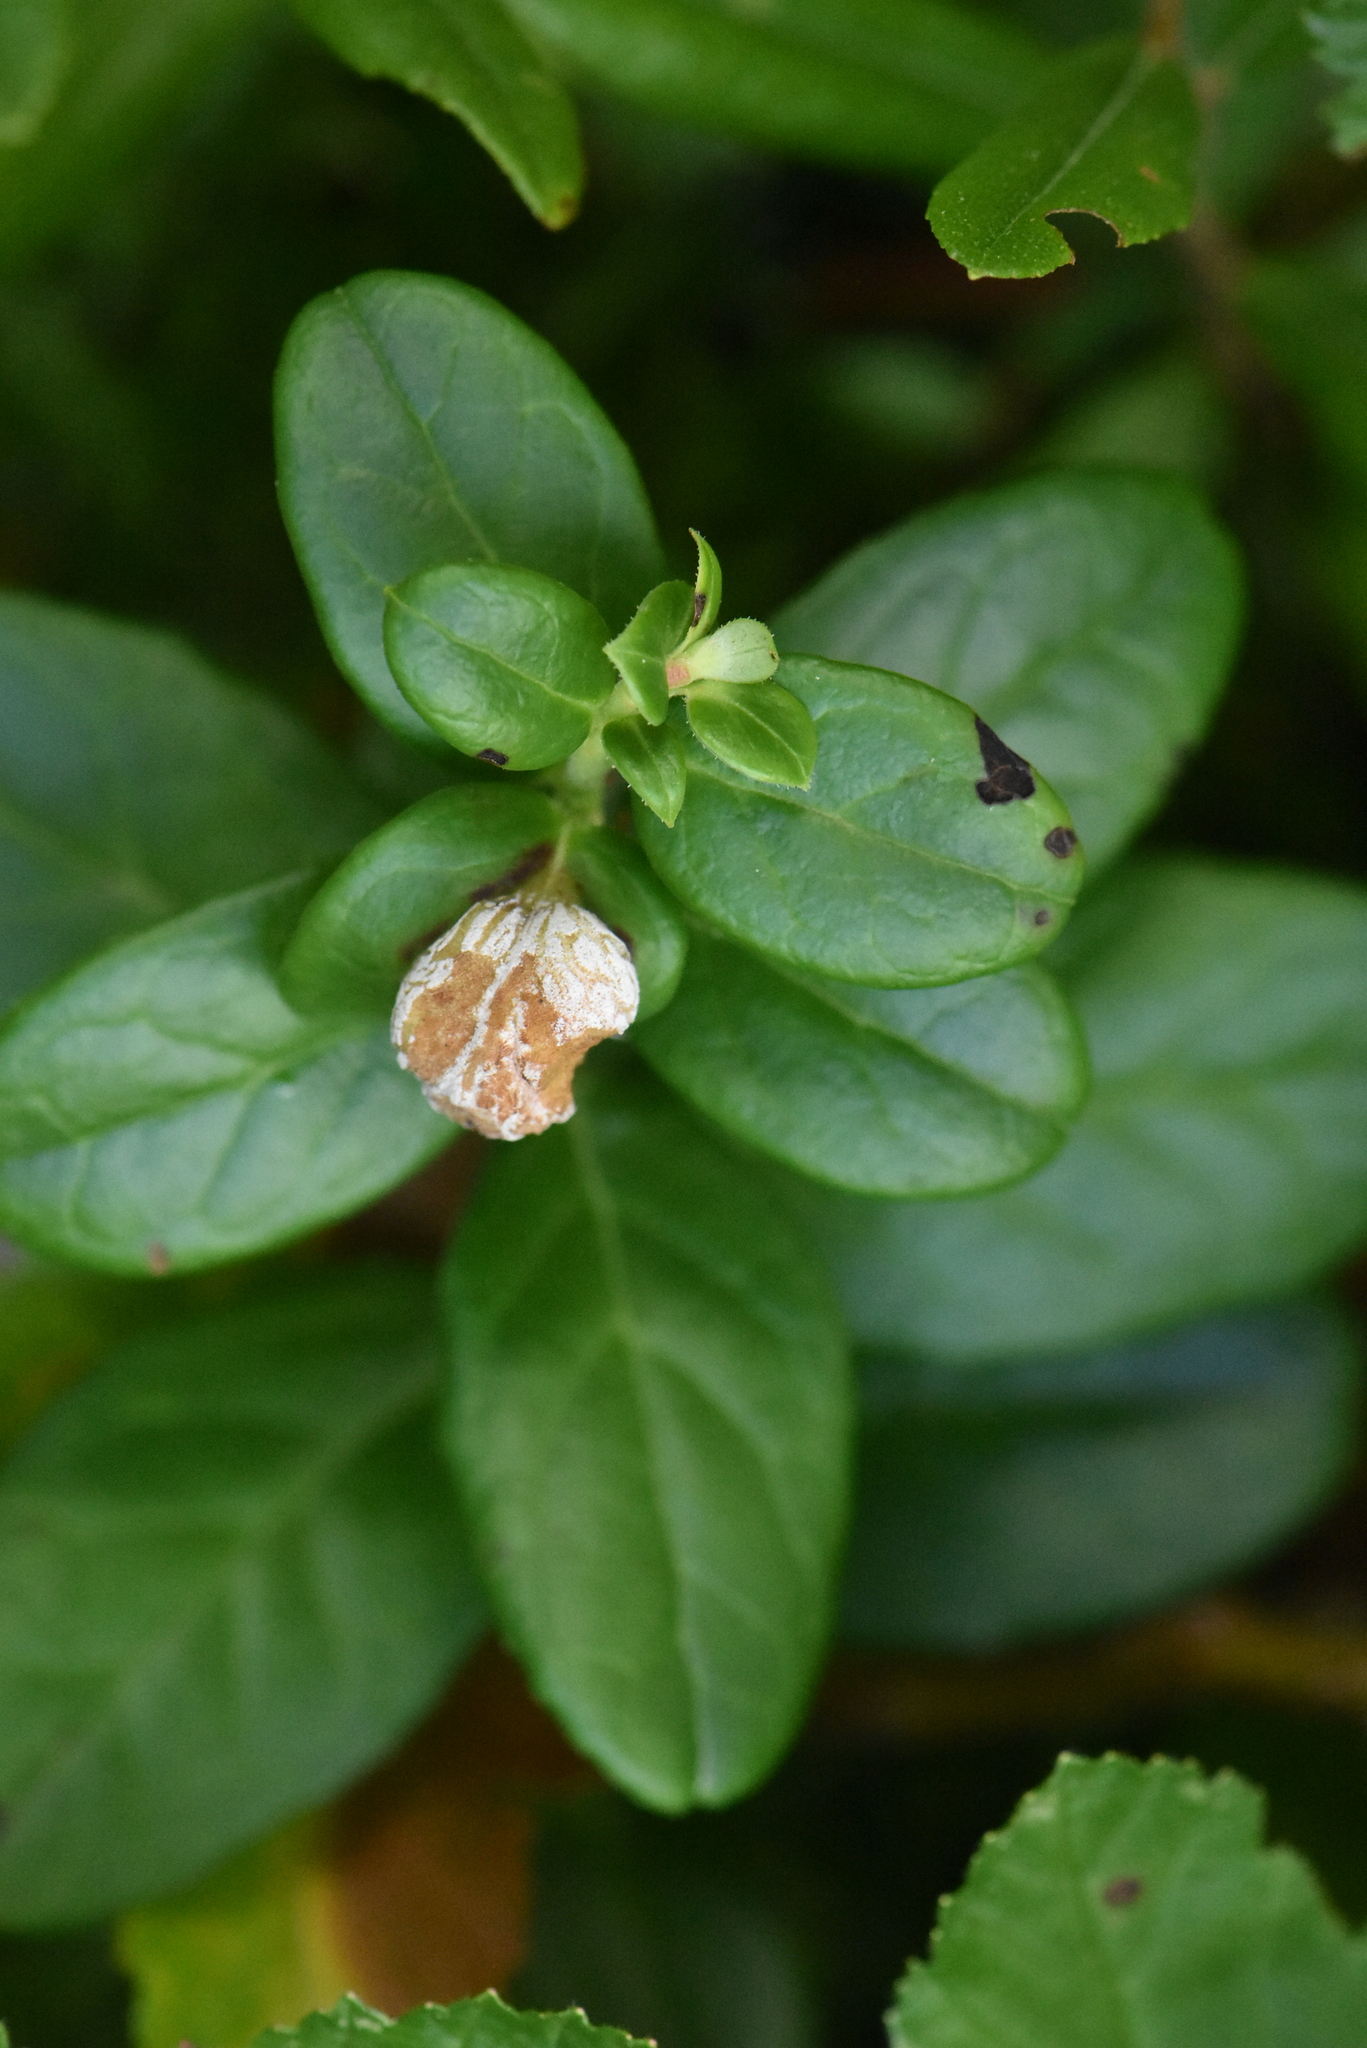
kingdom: Plantae
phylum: Tracheophyta
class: Magnoliopsida
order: Ericales
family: Ericaceae
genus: Vaccinium
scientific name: Vaccinium vitis-idaea
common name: Cowberry
